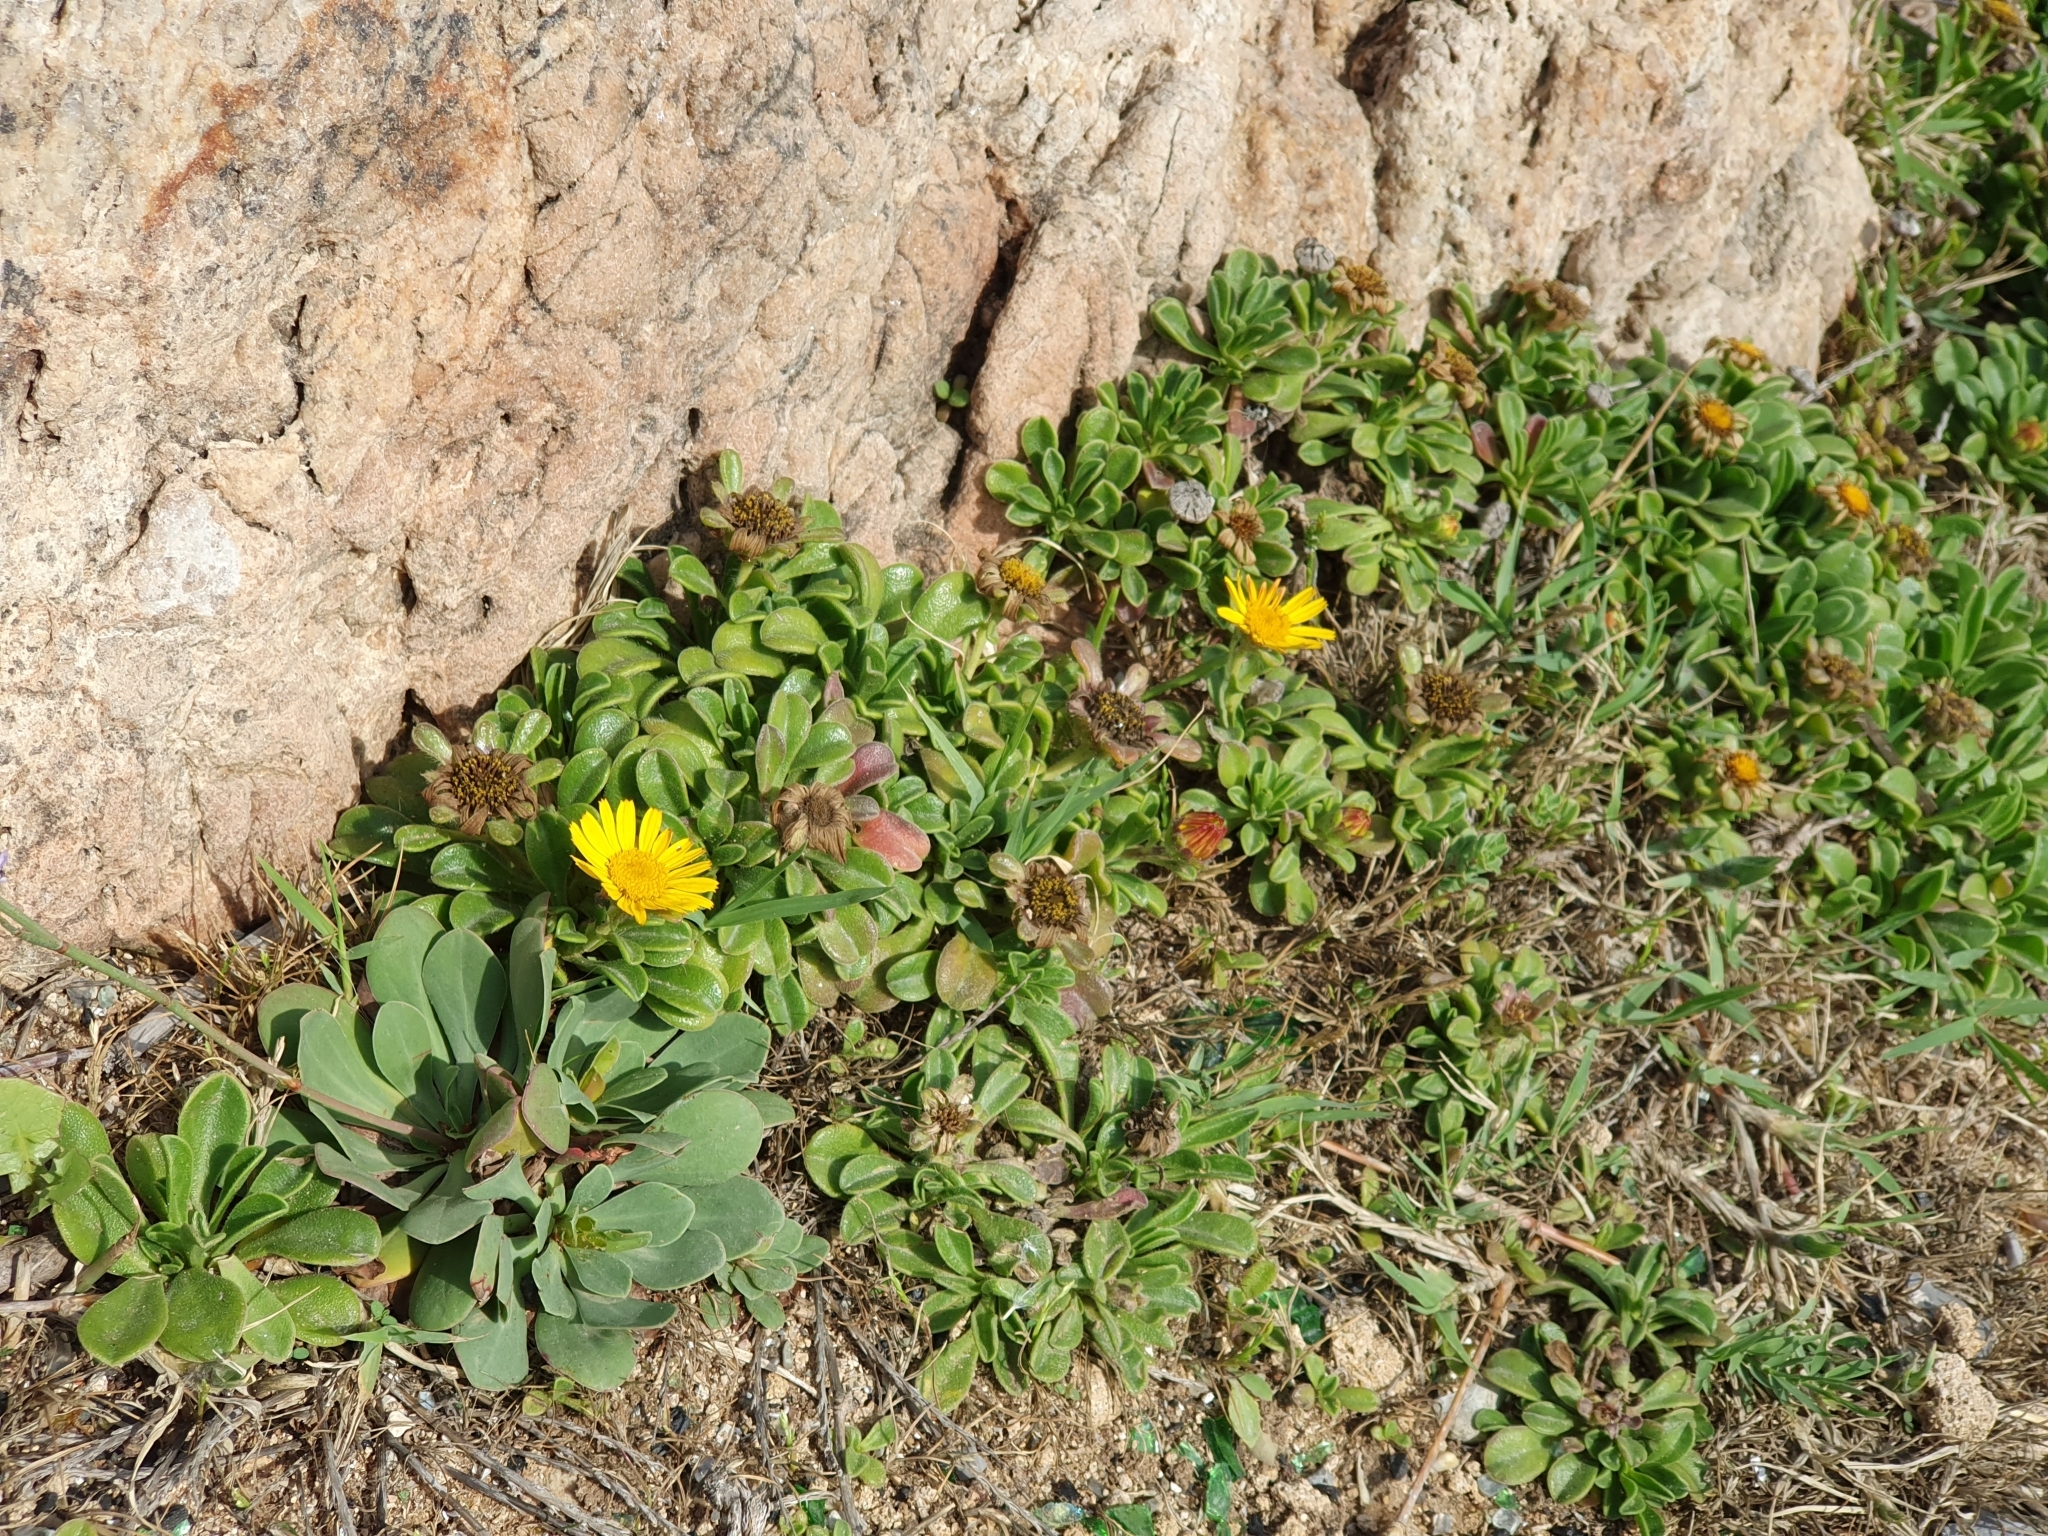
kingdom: Plantae
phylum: Tracheophyta
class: Magnoliopsida
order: Asterales
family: Asteraceae
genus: Pallenis
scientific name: Pallenis maritima
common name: Golden coin daisy
